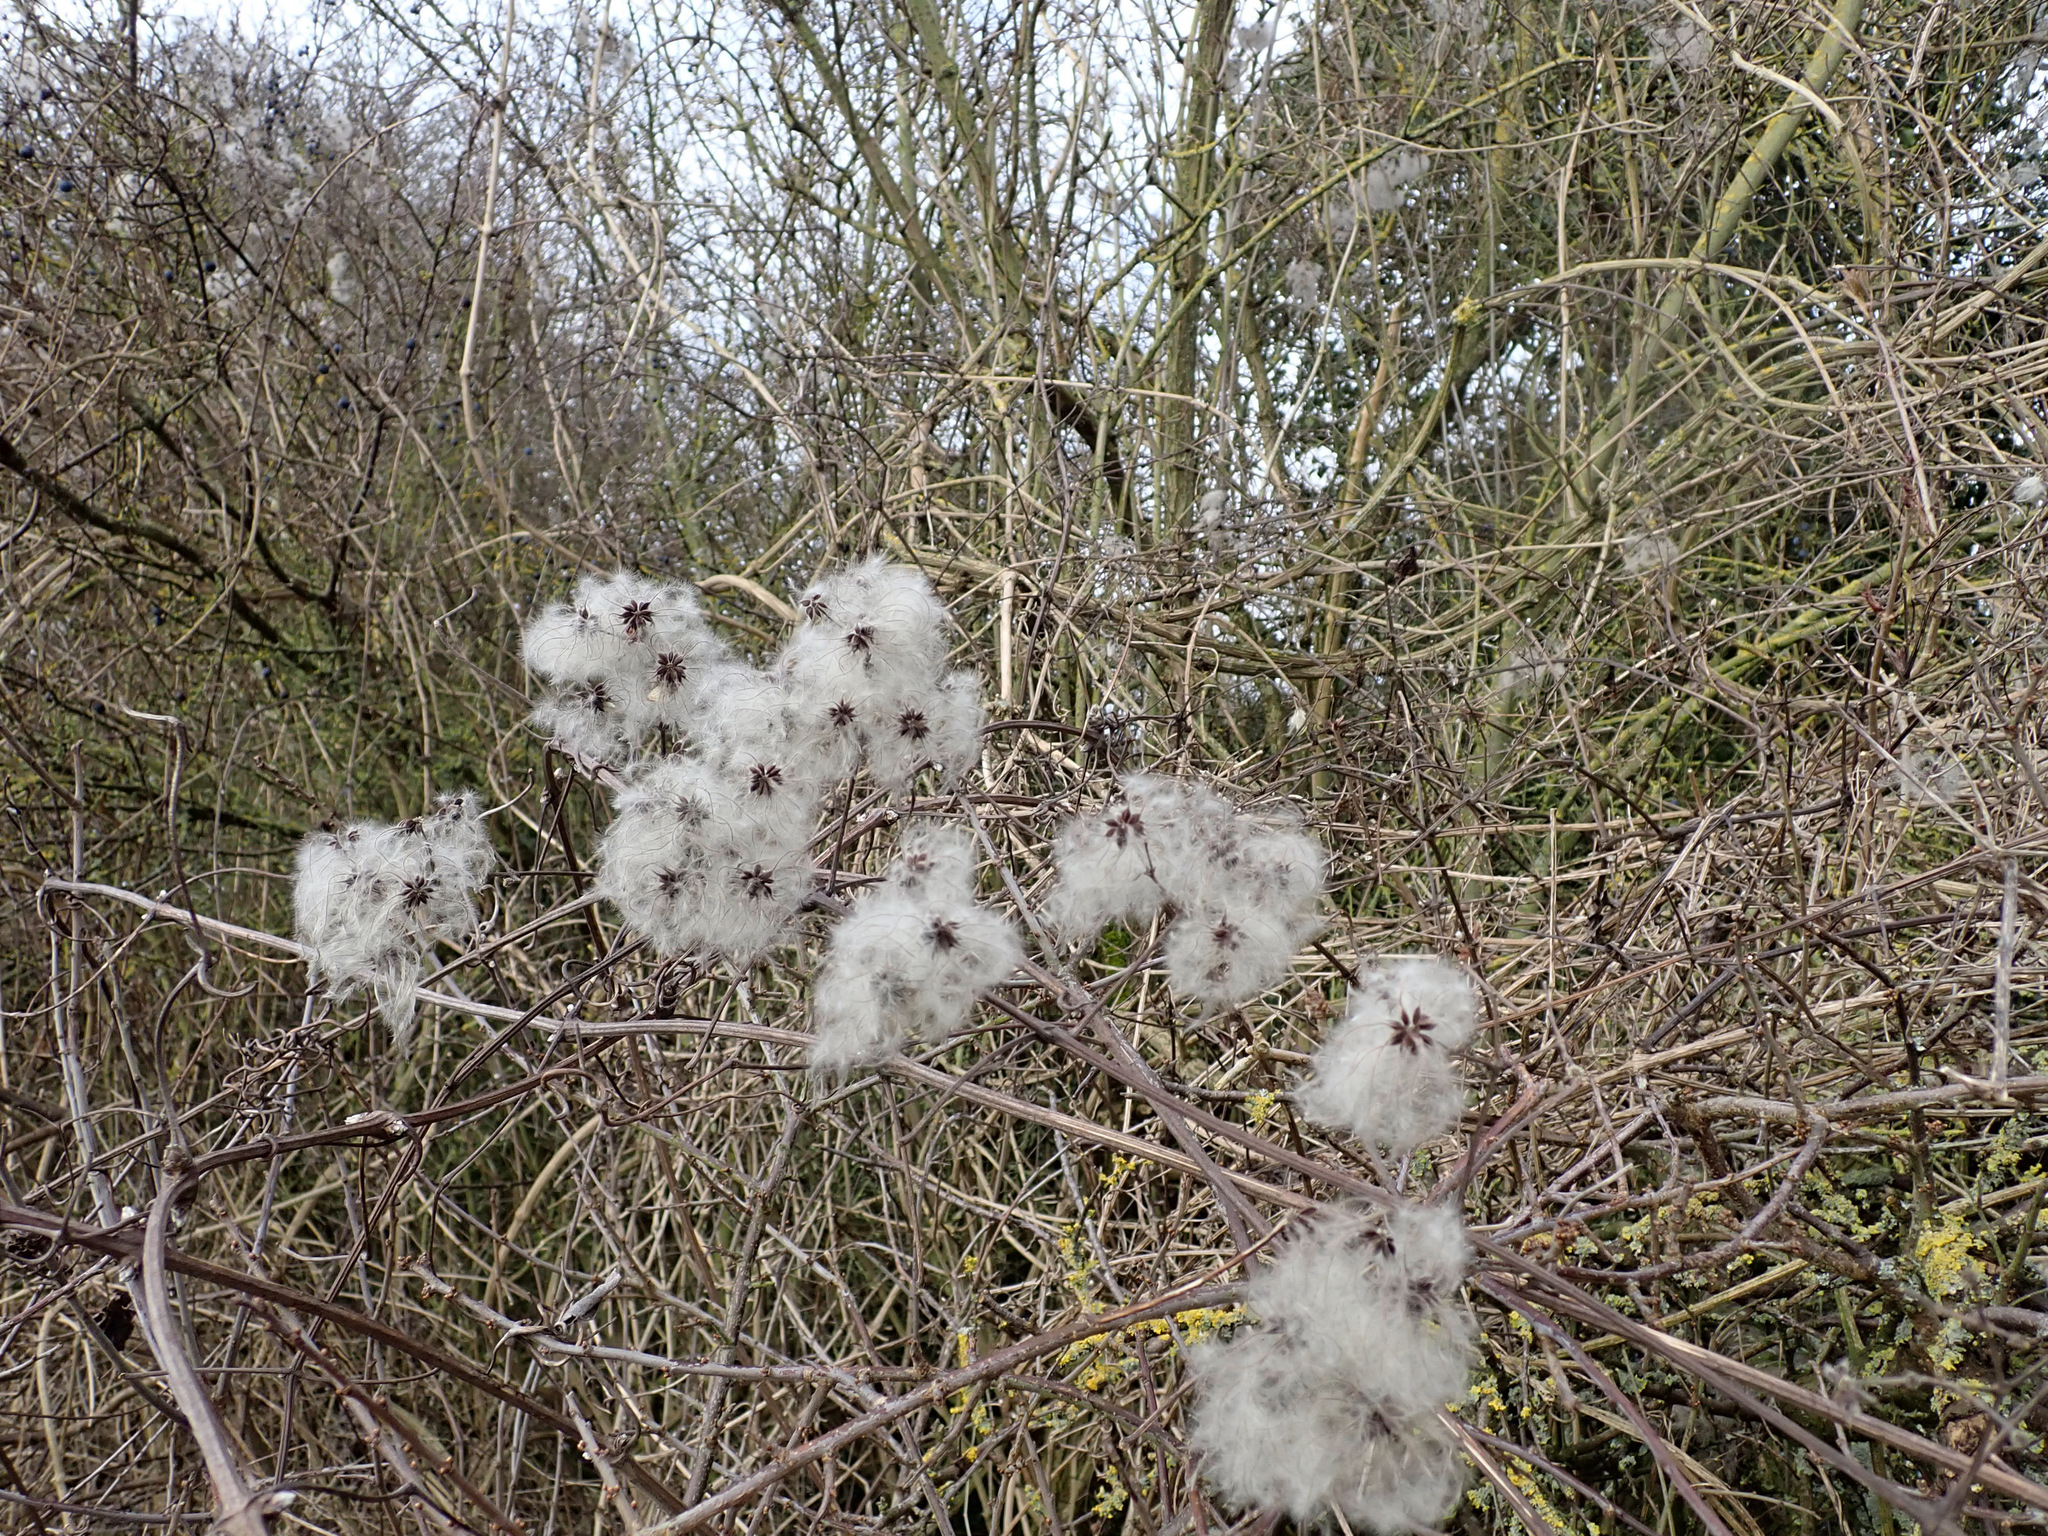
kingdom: Plantae
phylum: Tracheophyta
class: Magnoliopsida
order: Ranunculales
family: Ranunculaceae
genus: Clematis
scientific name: Clematis vitalba
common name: Evergreen clematis
